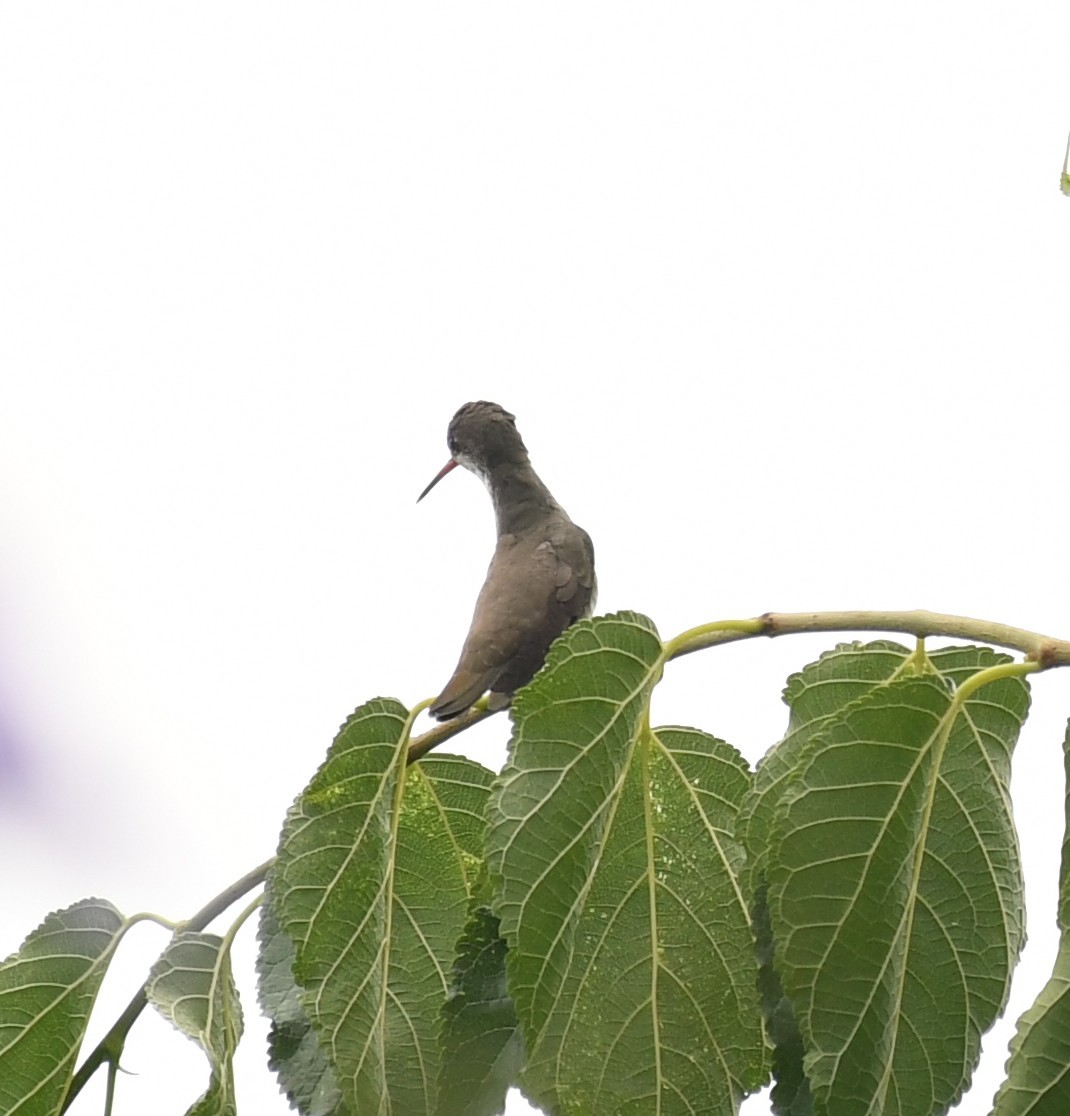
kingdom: Animalia
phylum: Chordata
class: Aves
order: Apodiformes
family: Trochilidae
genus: Leucolia
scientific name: Leucolia violiceps
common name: Violet-crowned hummingbird
